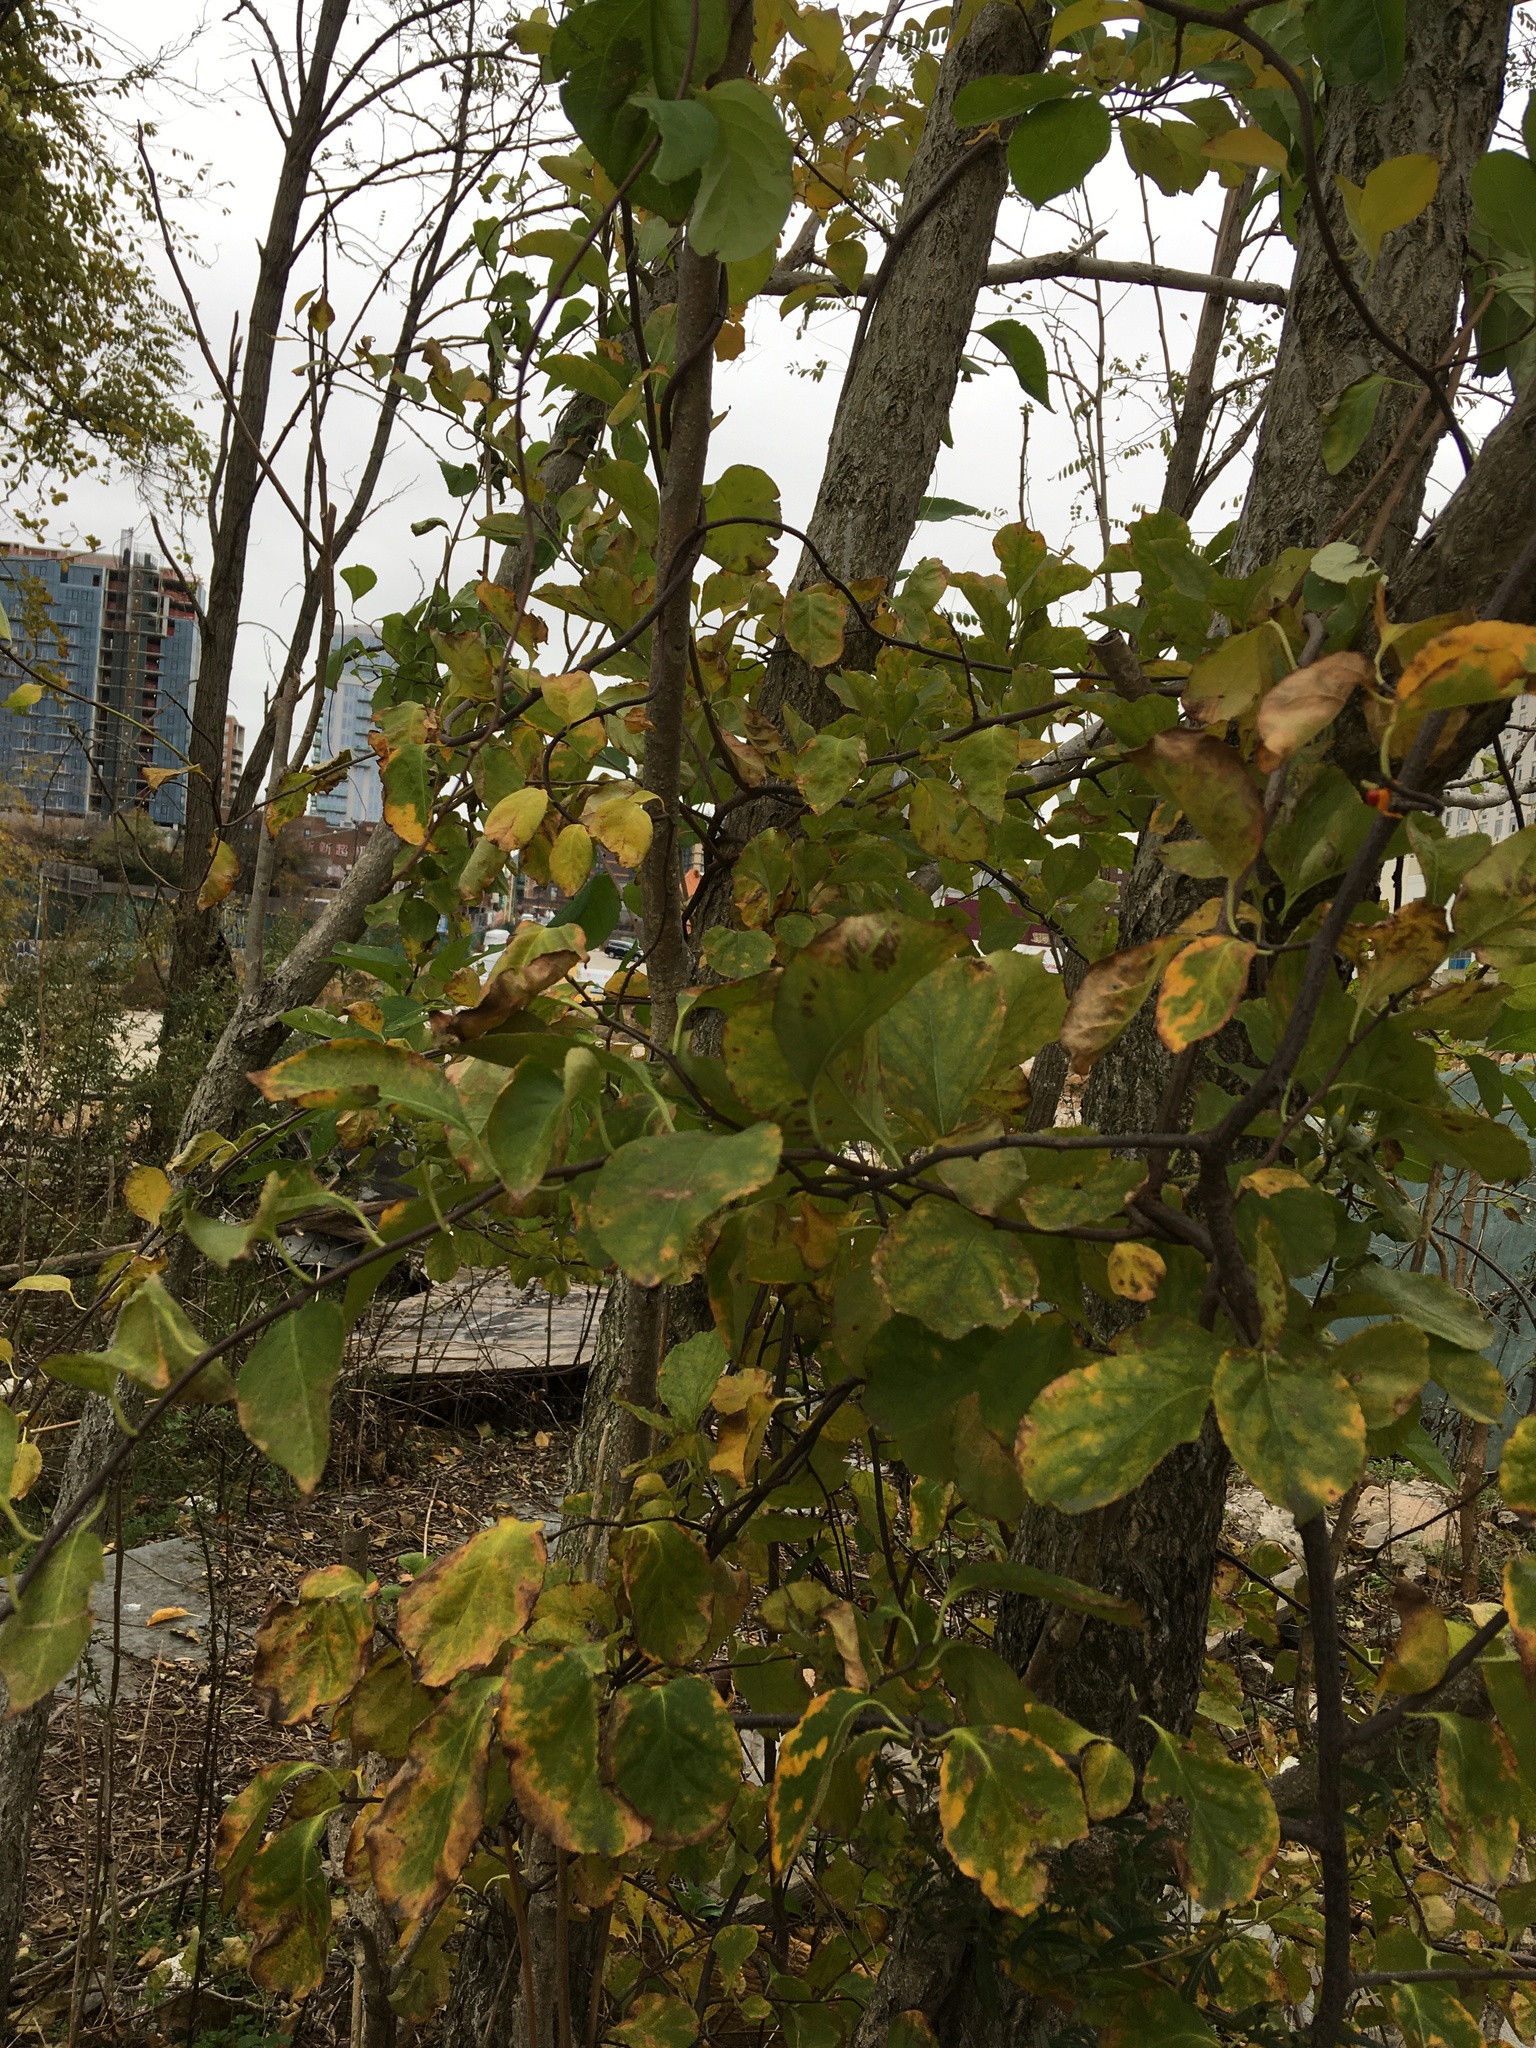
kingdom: Plantae
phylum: Tracheophyta
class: Magnoliopsida
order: Celastrales
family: Celastraceae
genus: Celastrus
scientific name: Celastrus orbiculatus
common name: Oriental bittersweet
